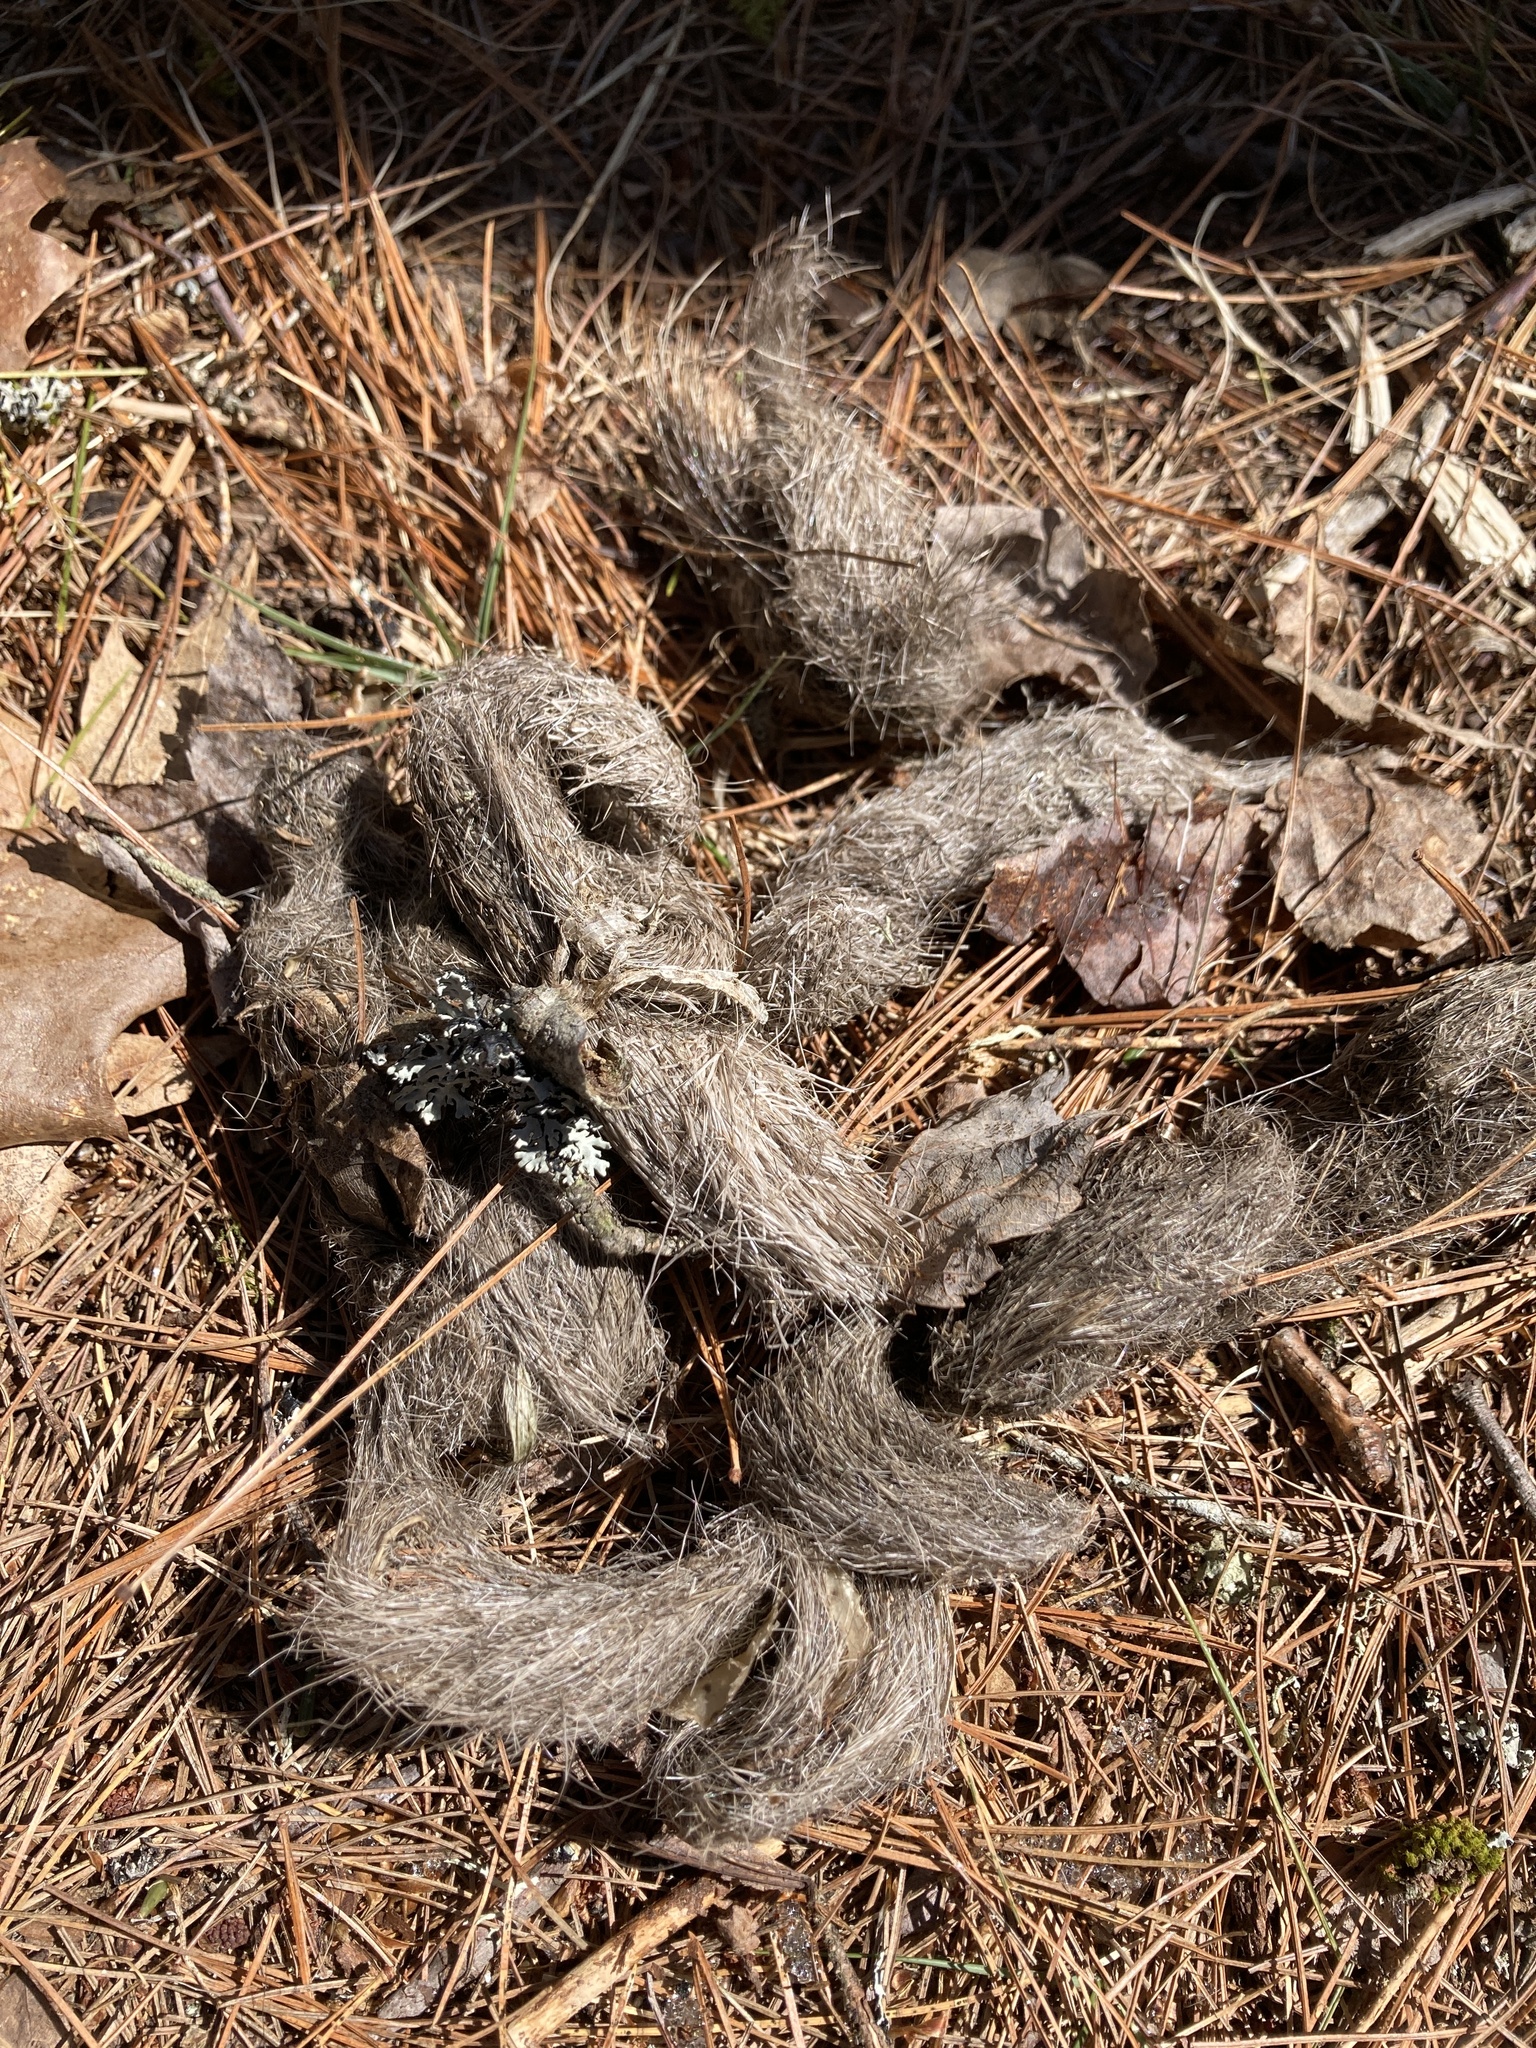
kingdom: Animalia
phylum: Chordata
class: Mammalia
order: Carnivora
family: Canidae
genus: Canis
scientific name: Canis latrans
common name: Coyote
